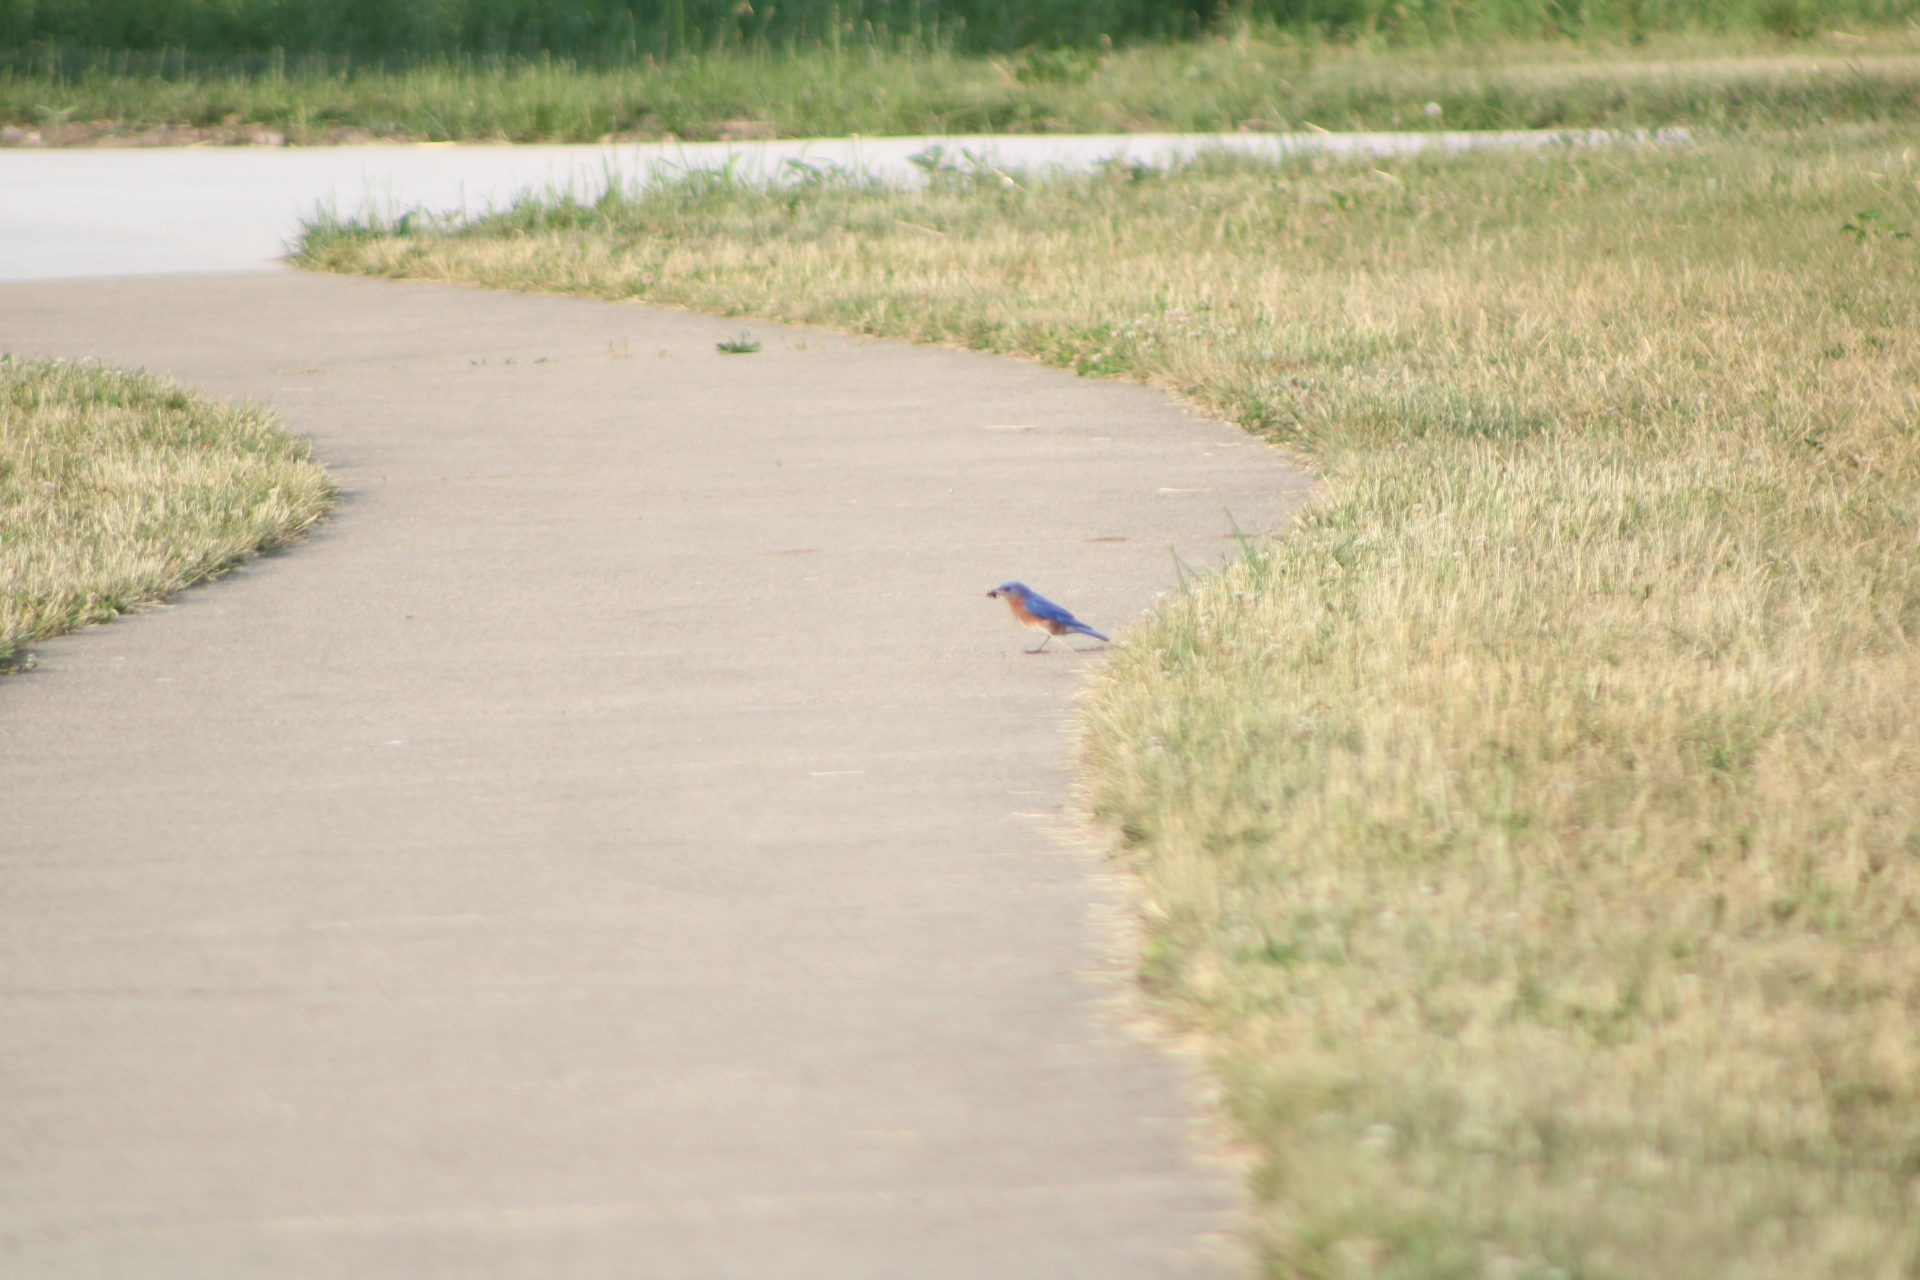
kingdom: Animalia
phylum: Chordata
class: Aves
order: Passeriformes
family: Turdidae
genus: Sialia
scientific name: Sialia sialis
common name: Eastern bluebird
